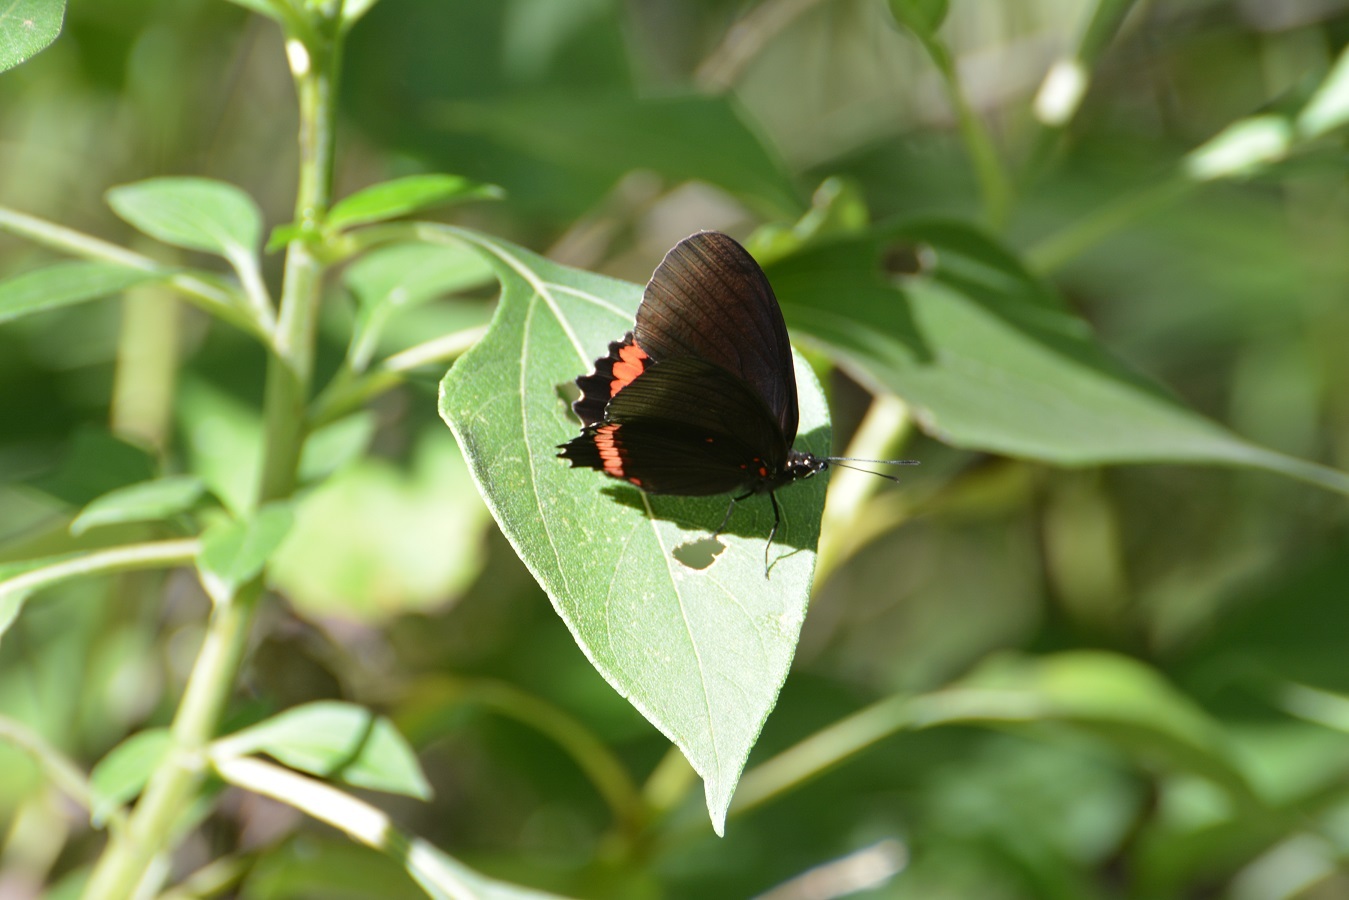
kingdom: Animalia
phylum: Arthropoda
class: Insecta
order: Lepidoptera
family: Nymphalidae
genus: Biblis
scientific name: Biblis aganisa
